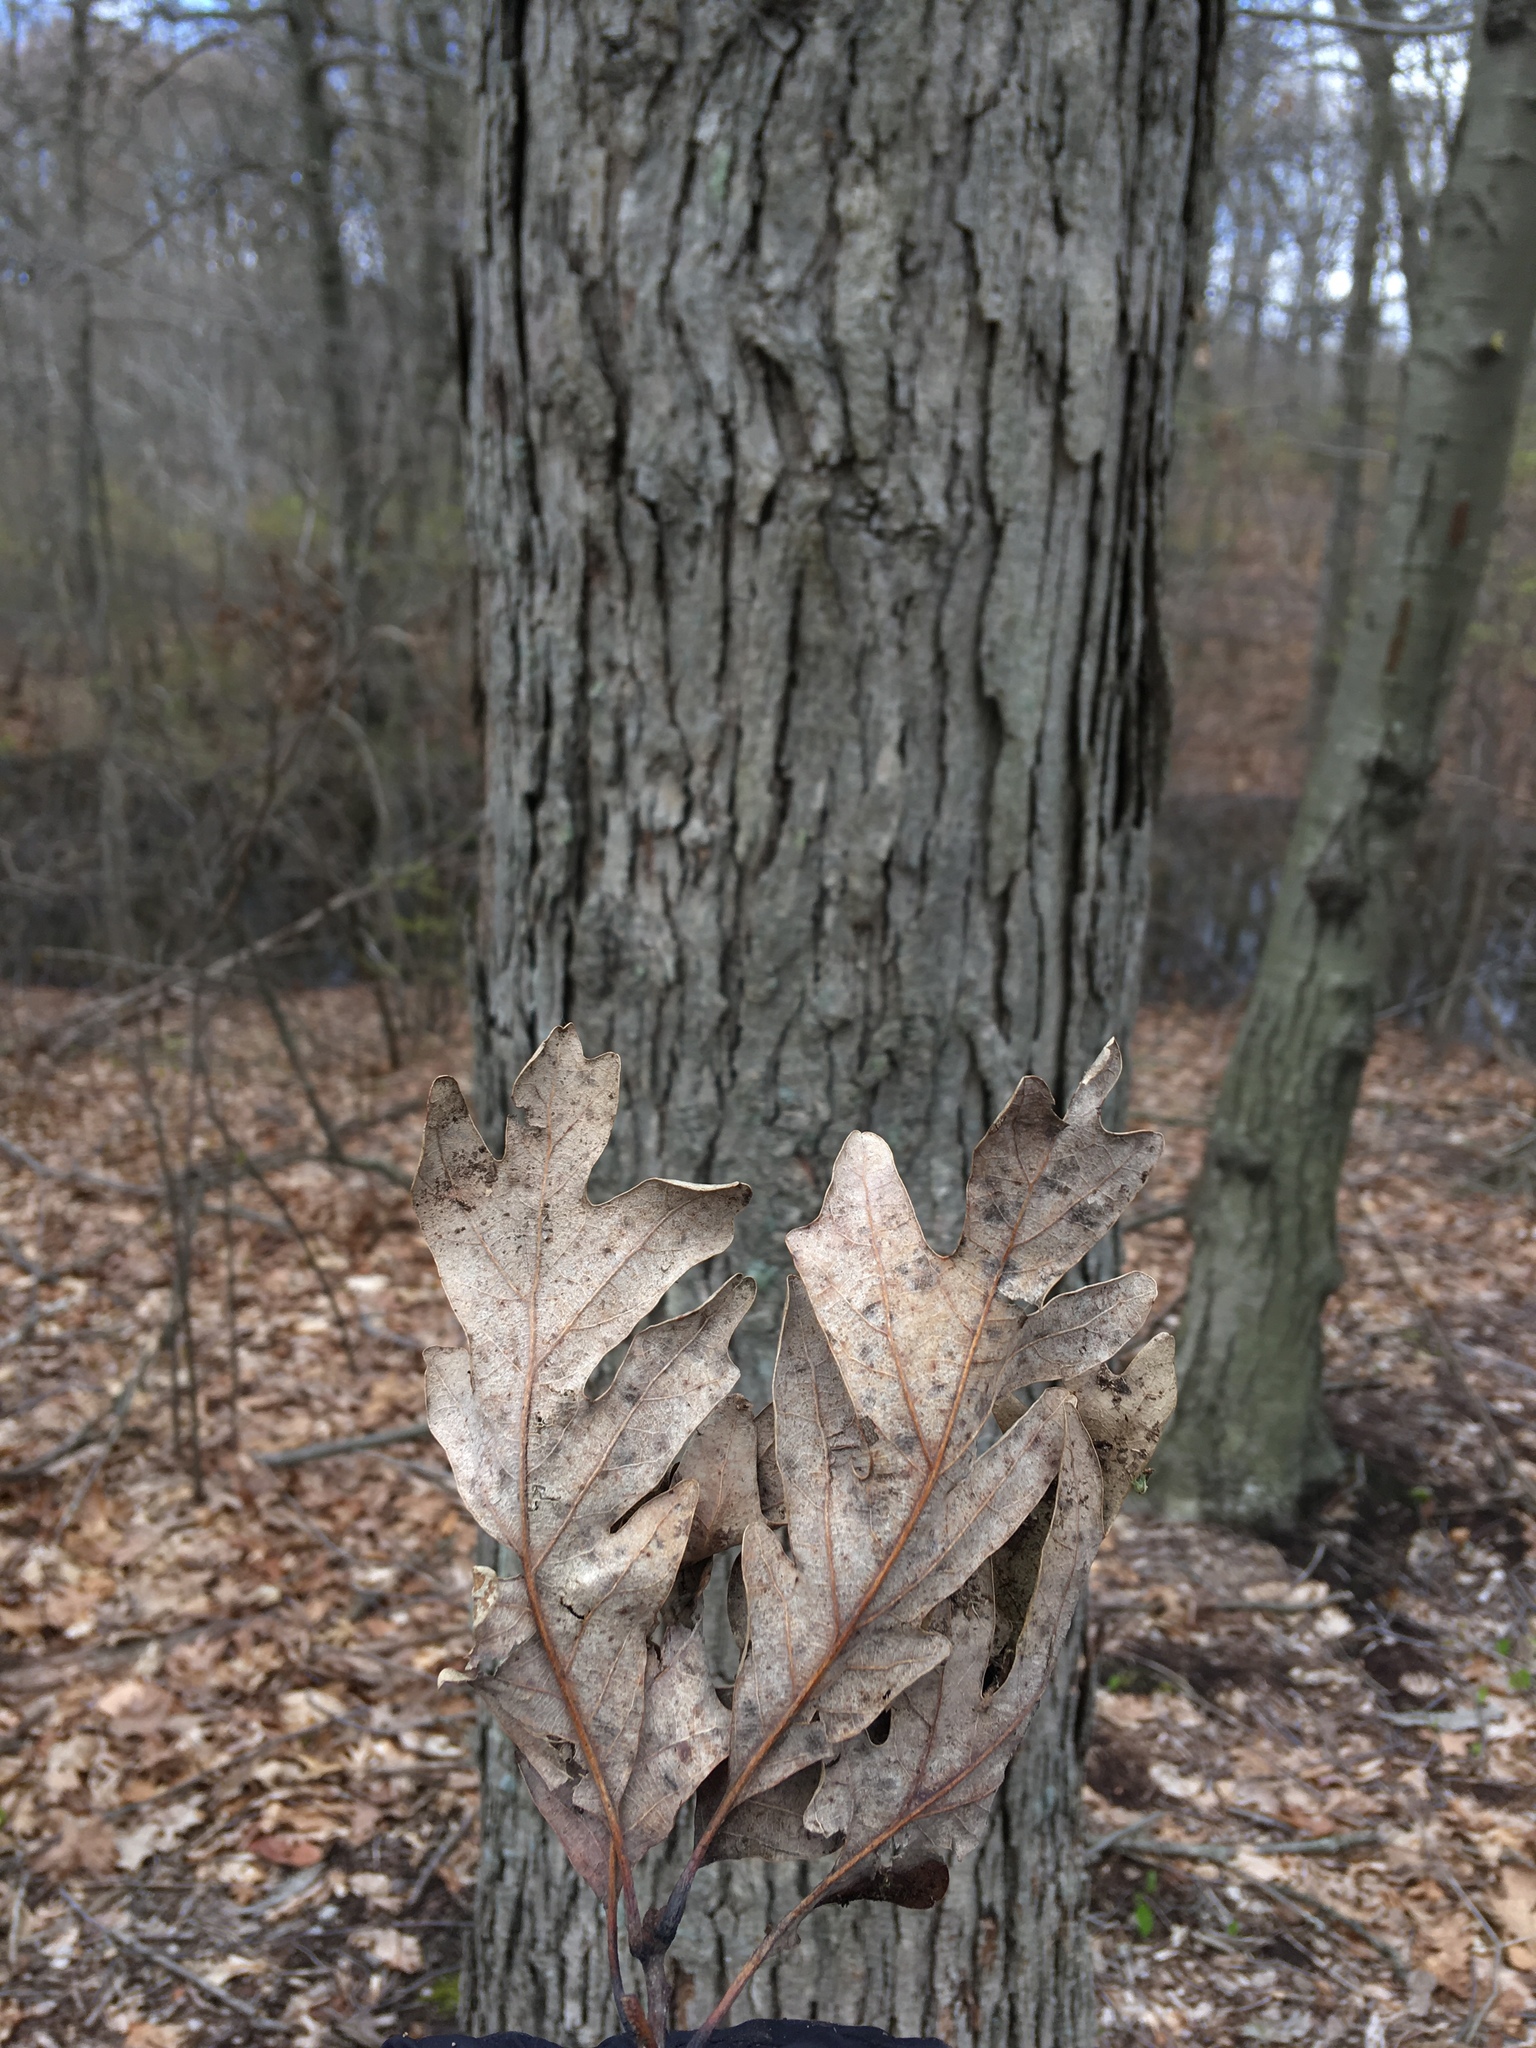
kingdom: Plantae
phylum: Tracheophyta
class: Magnoliopsida
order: Fagales
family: Fagaceae
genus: Quercus
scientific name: Quercus alba
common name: White oak
